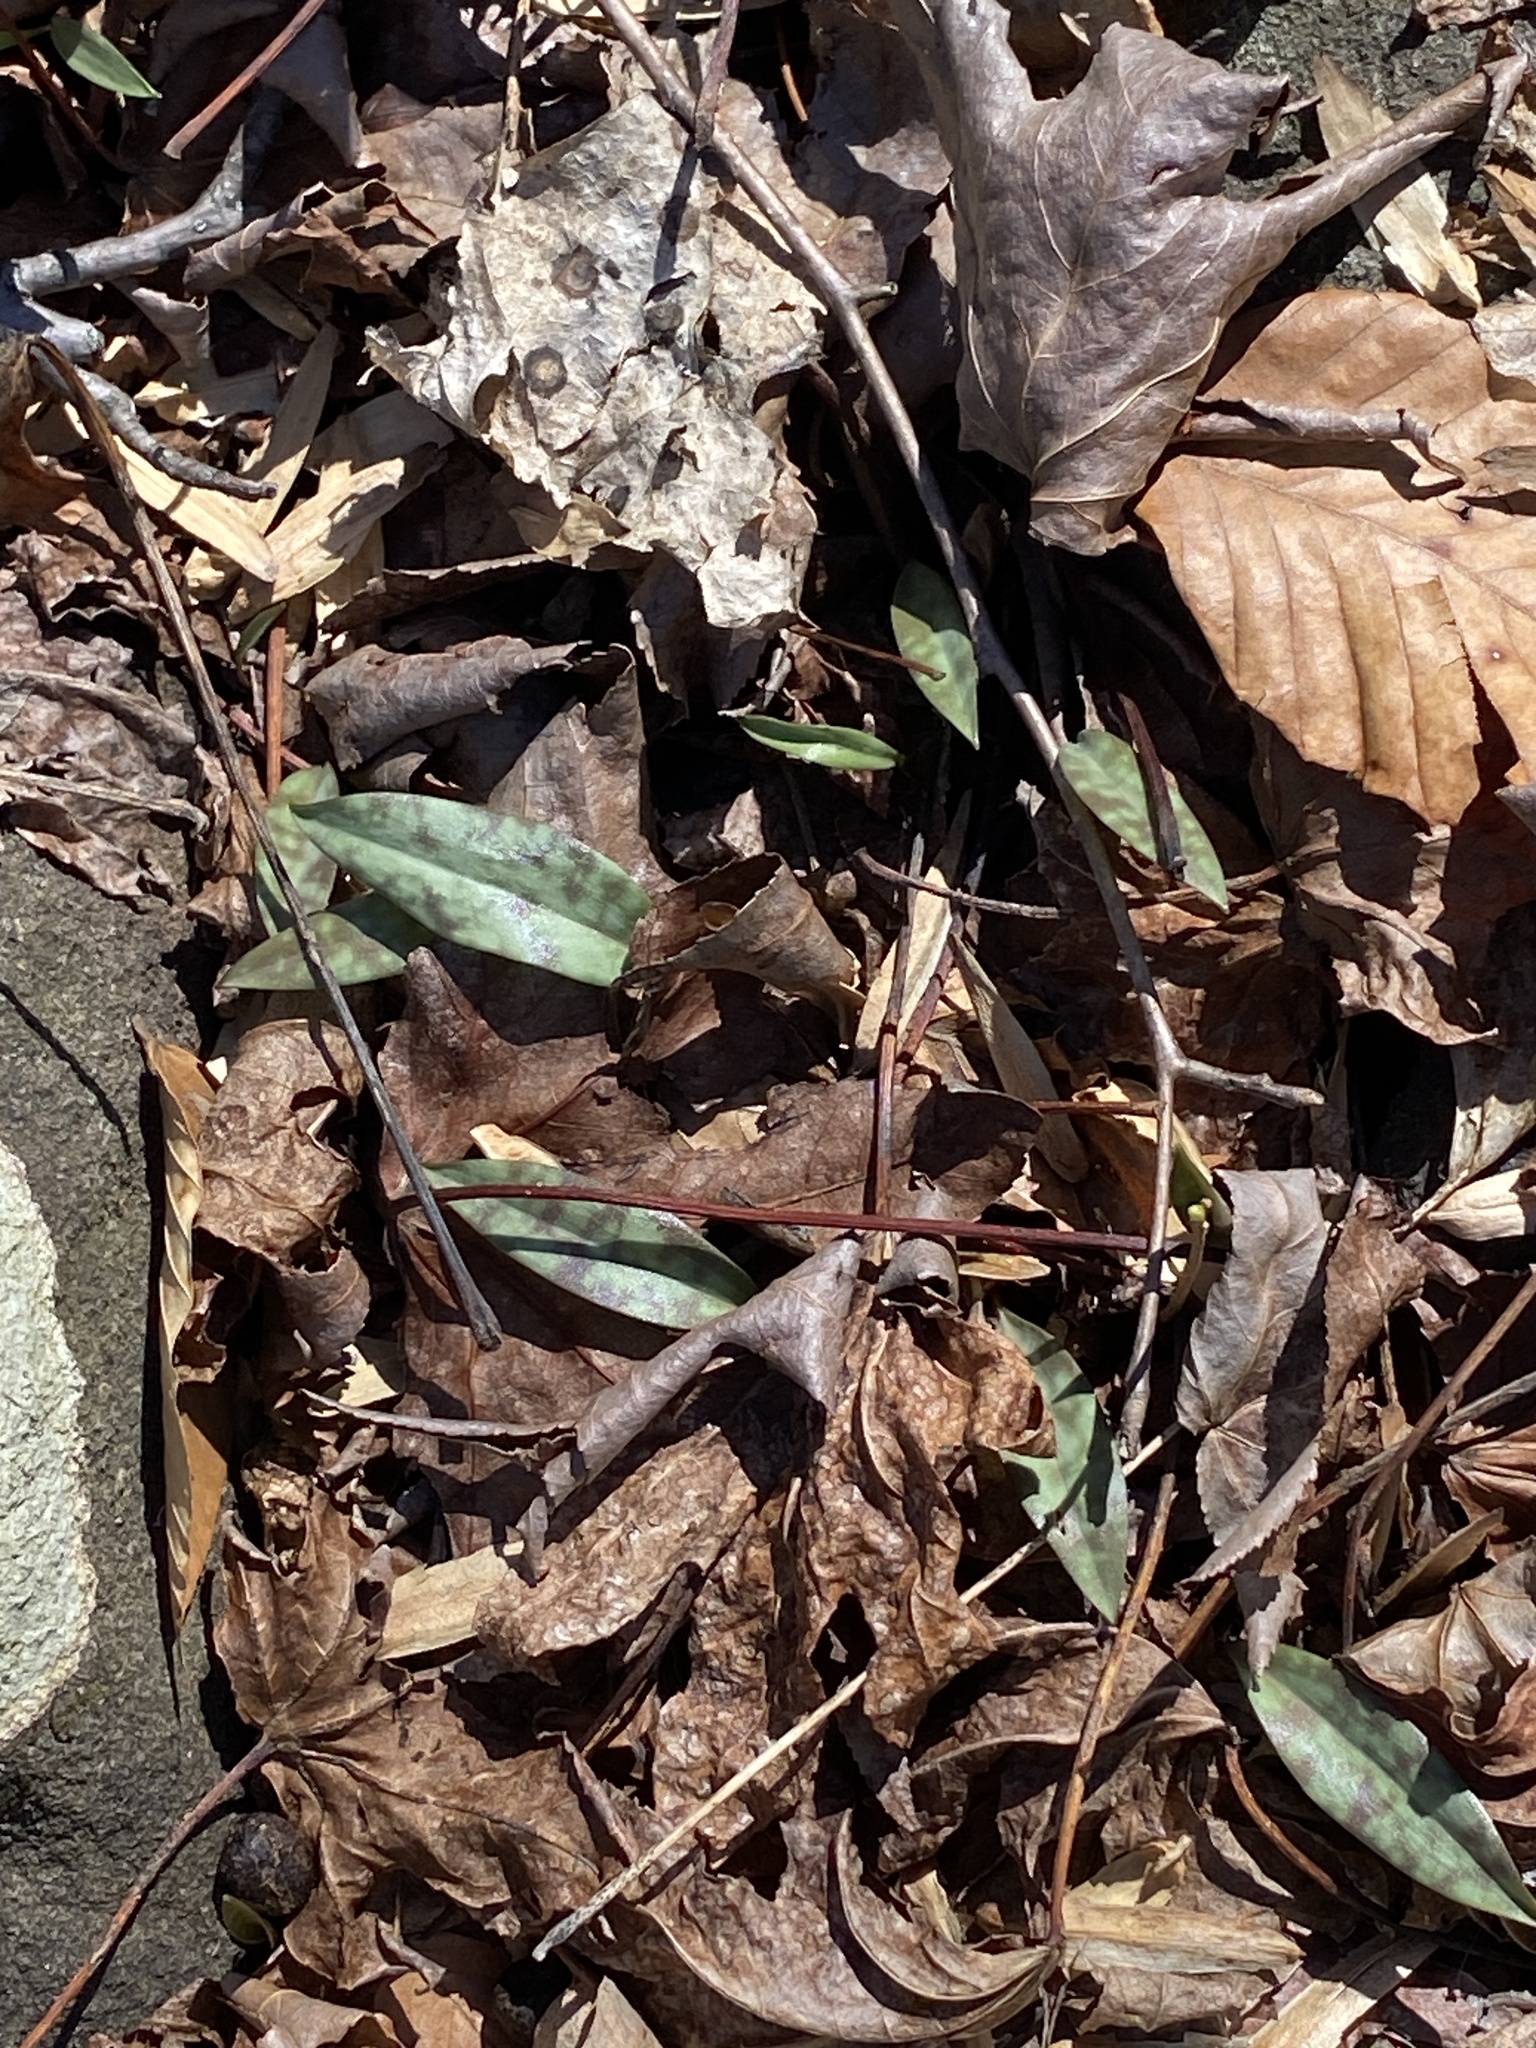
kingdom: Plantae
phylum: Tracheophyta
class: Liliopsida
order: Liliales
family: Liliaceae
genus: Erythronium
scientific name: Erythronium americanum
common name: Yellow adder's-tongue
